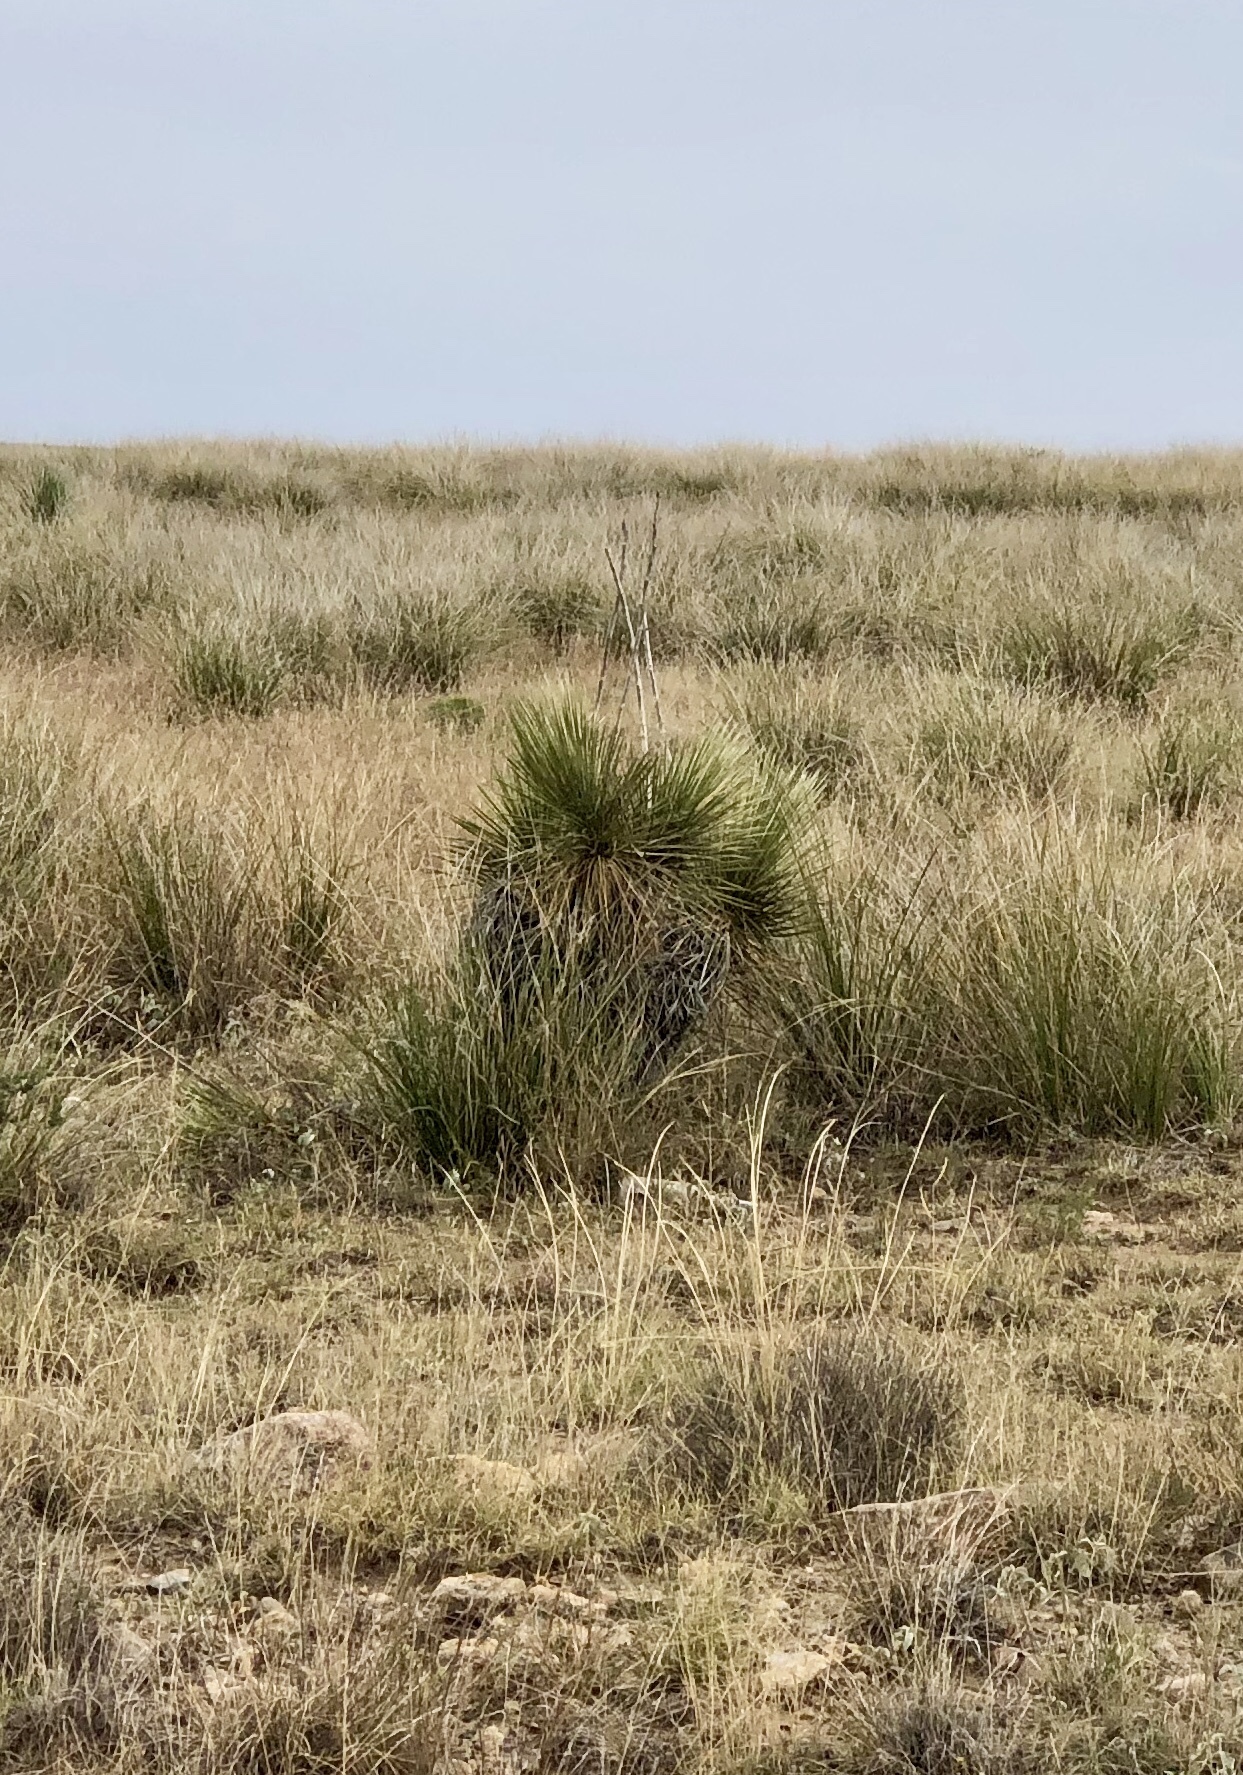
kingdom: Plantae
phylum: Tracheophyta
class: Liliopsida
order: Asparagales
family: Asparagaceae
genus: Yucca
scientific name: Yucca elata
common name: Palmella
